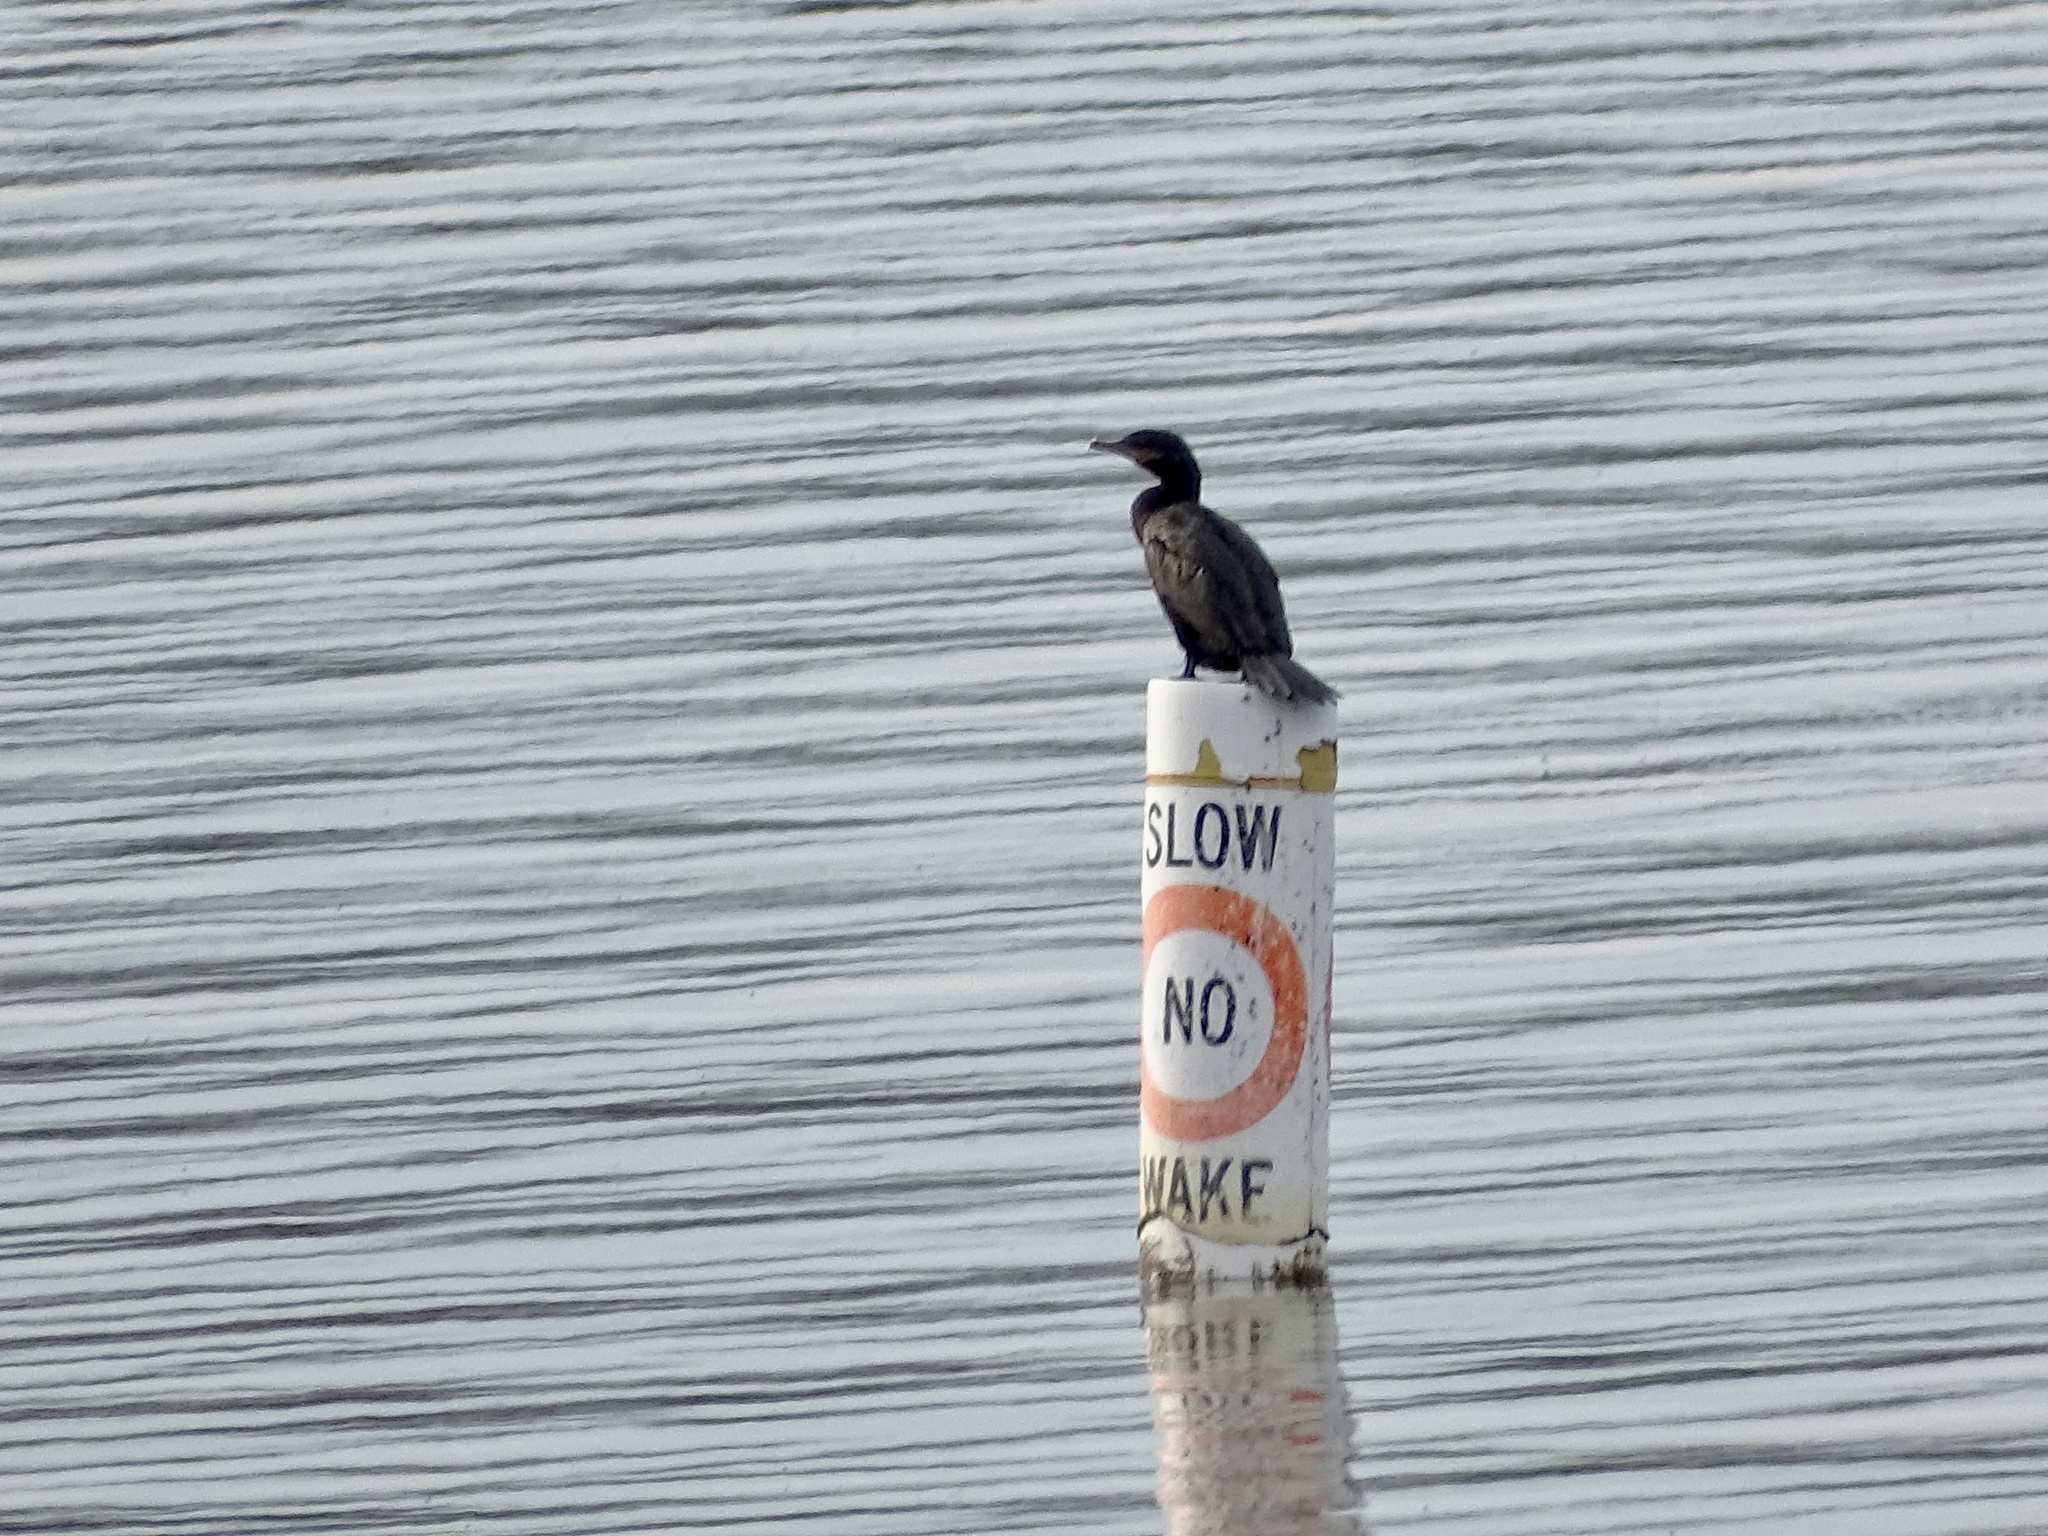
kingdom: Animalia
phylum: Chordata
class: Aves
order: Suliformes
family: Phalacrocoracidae
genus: Phalacrocorax
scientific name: Phalacrocorax brasilianus
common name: Neotropic cormorant
